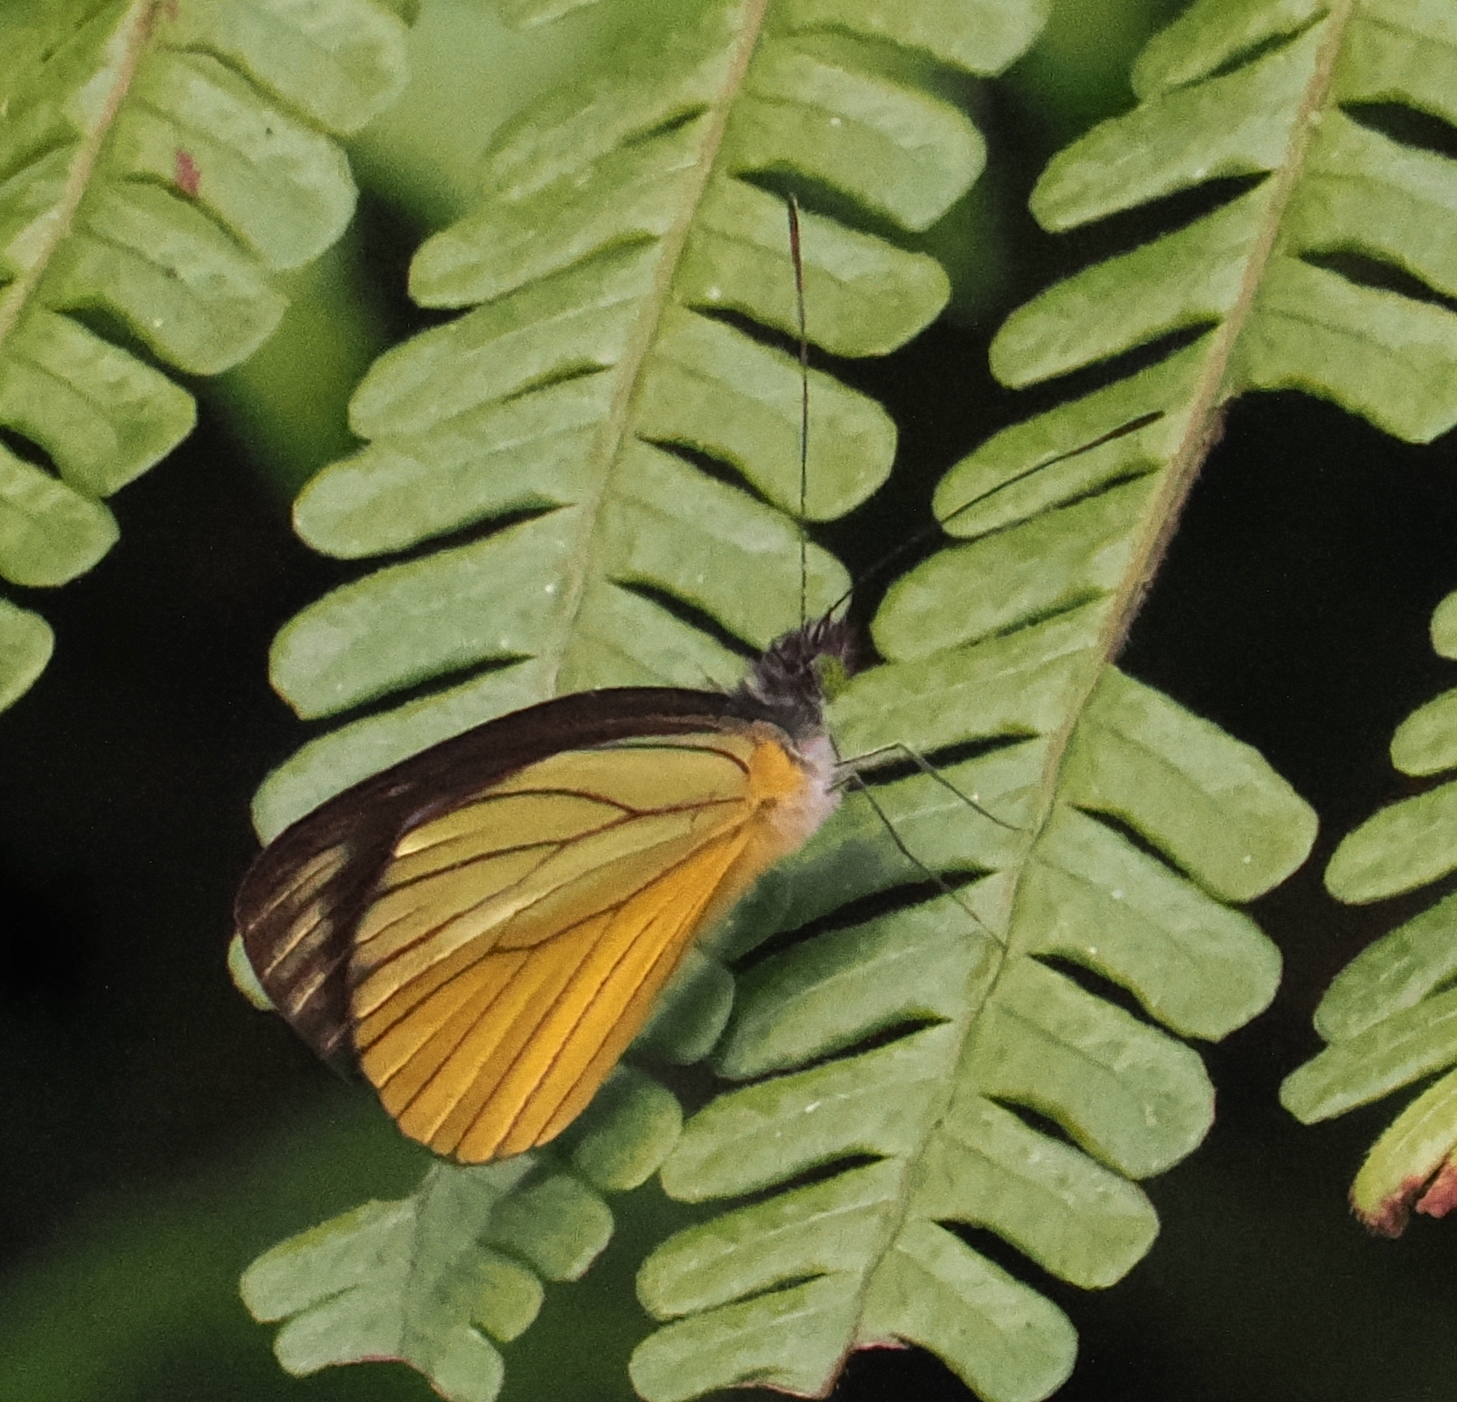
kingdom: Animalia
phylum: Arthropoda
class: Insecta
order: Lepidoptera
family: Pieridae
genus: Leptophobia
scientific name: Leptophobia caesia
